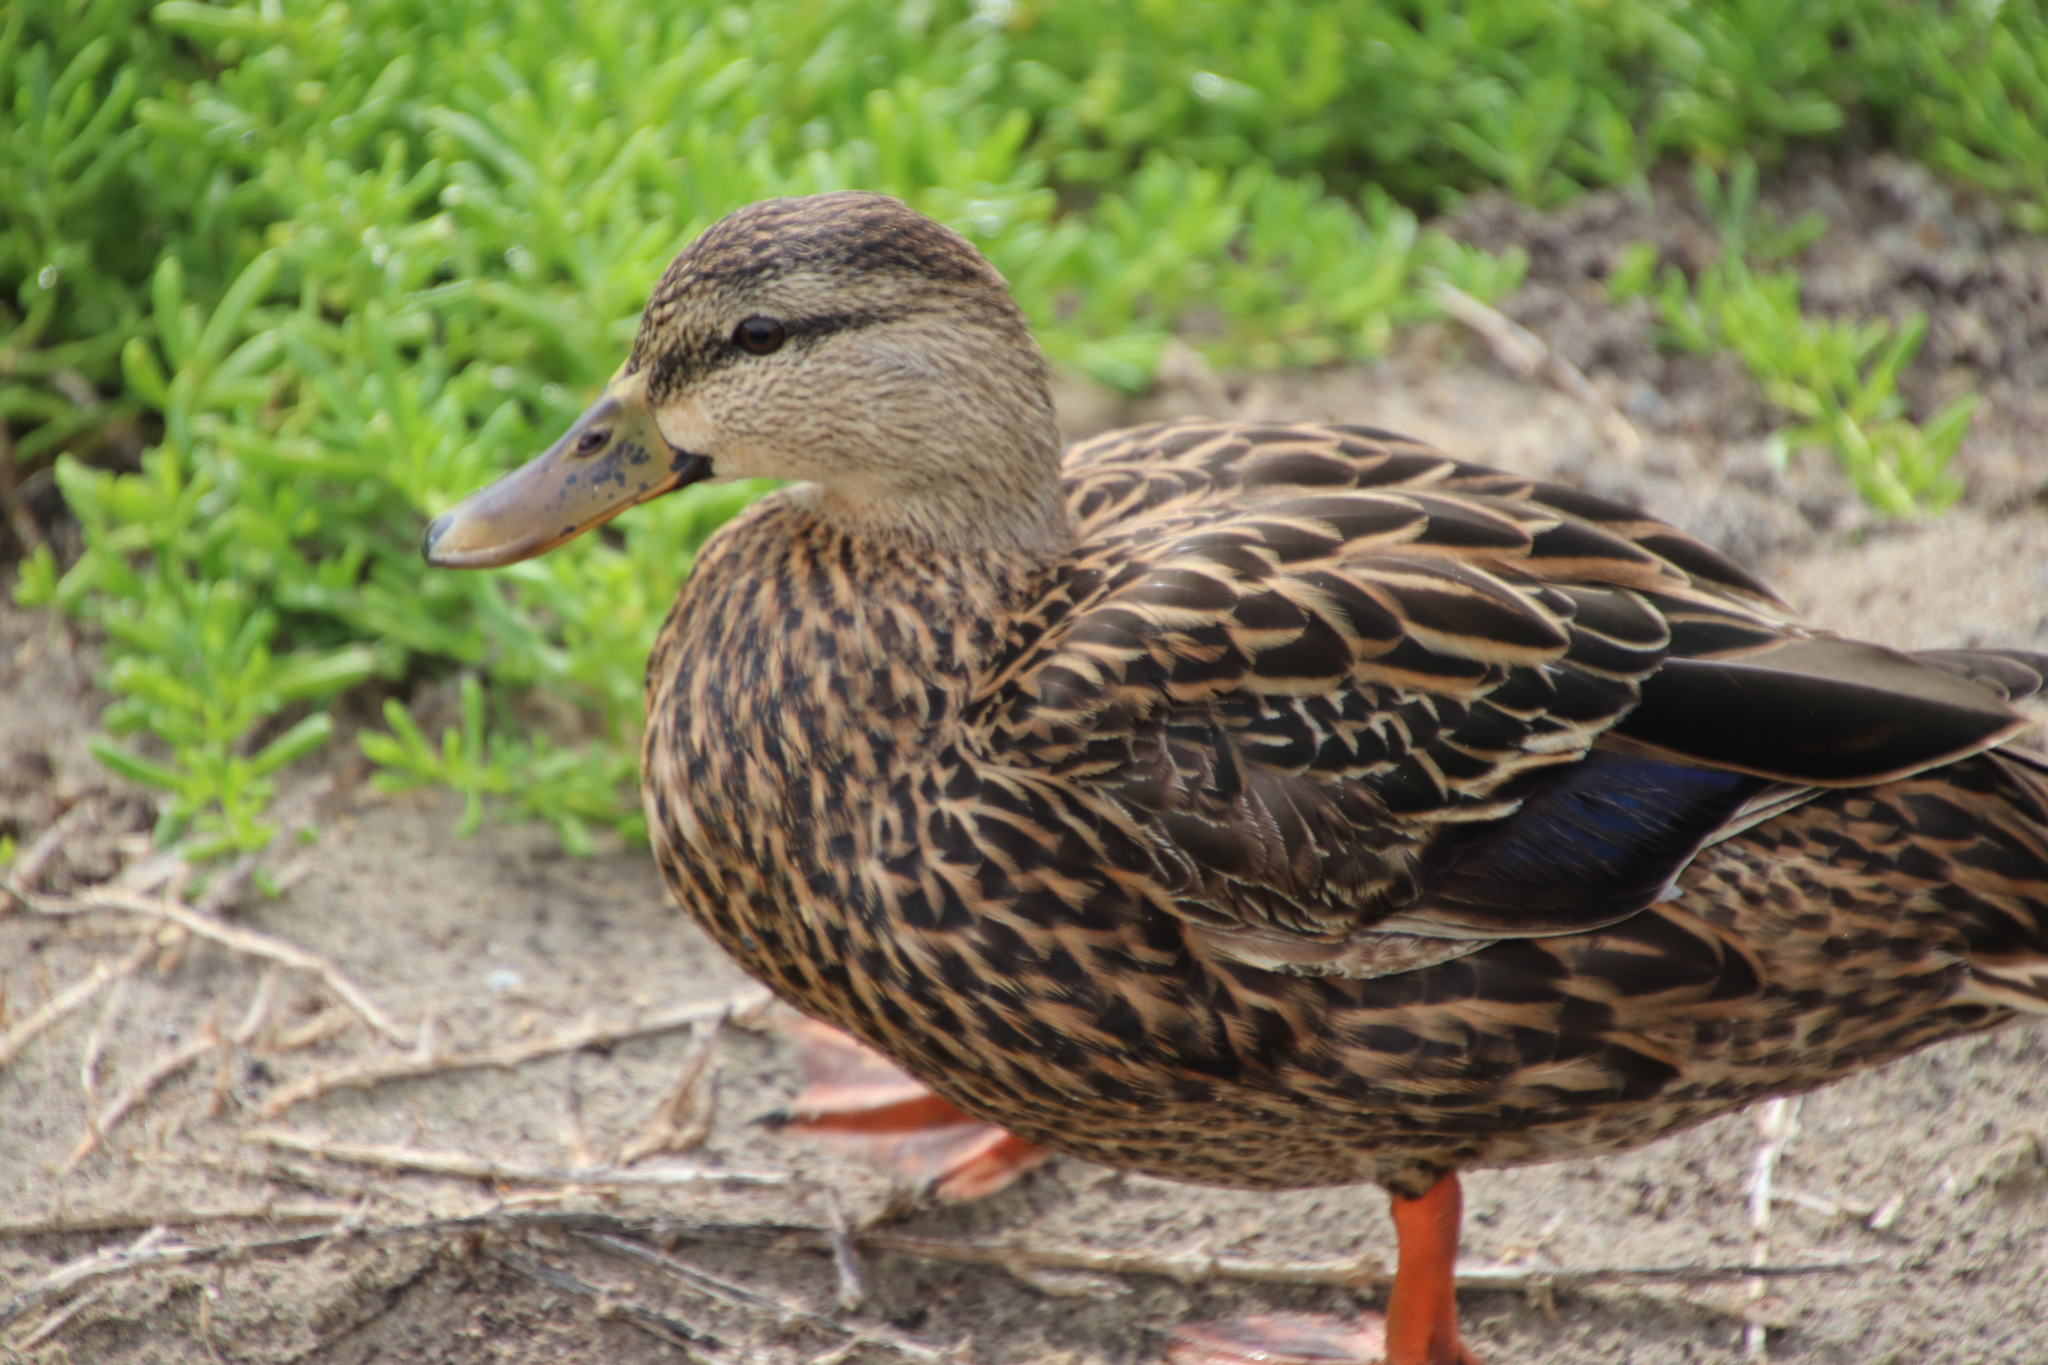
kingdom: Animalia
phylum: Chordata
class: Aves
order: Anseriformes
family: Anatidae
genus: Anas
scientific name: Anas fulvigula
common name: Mottled duck
